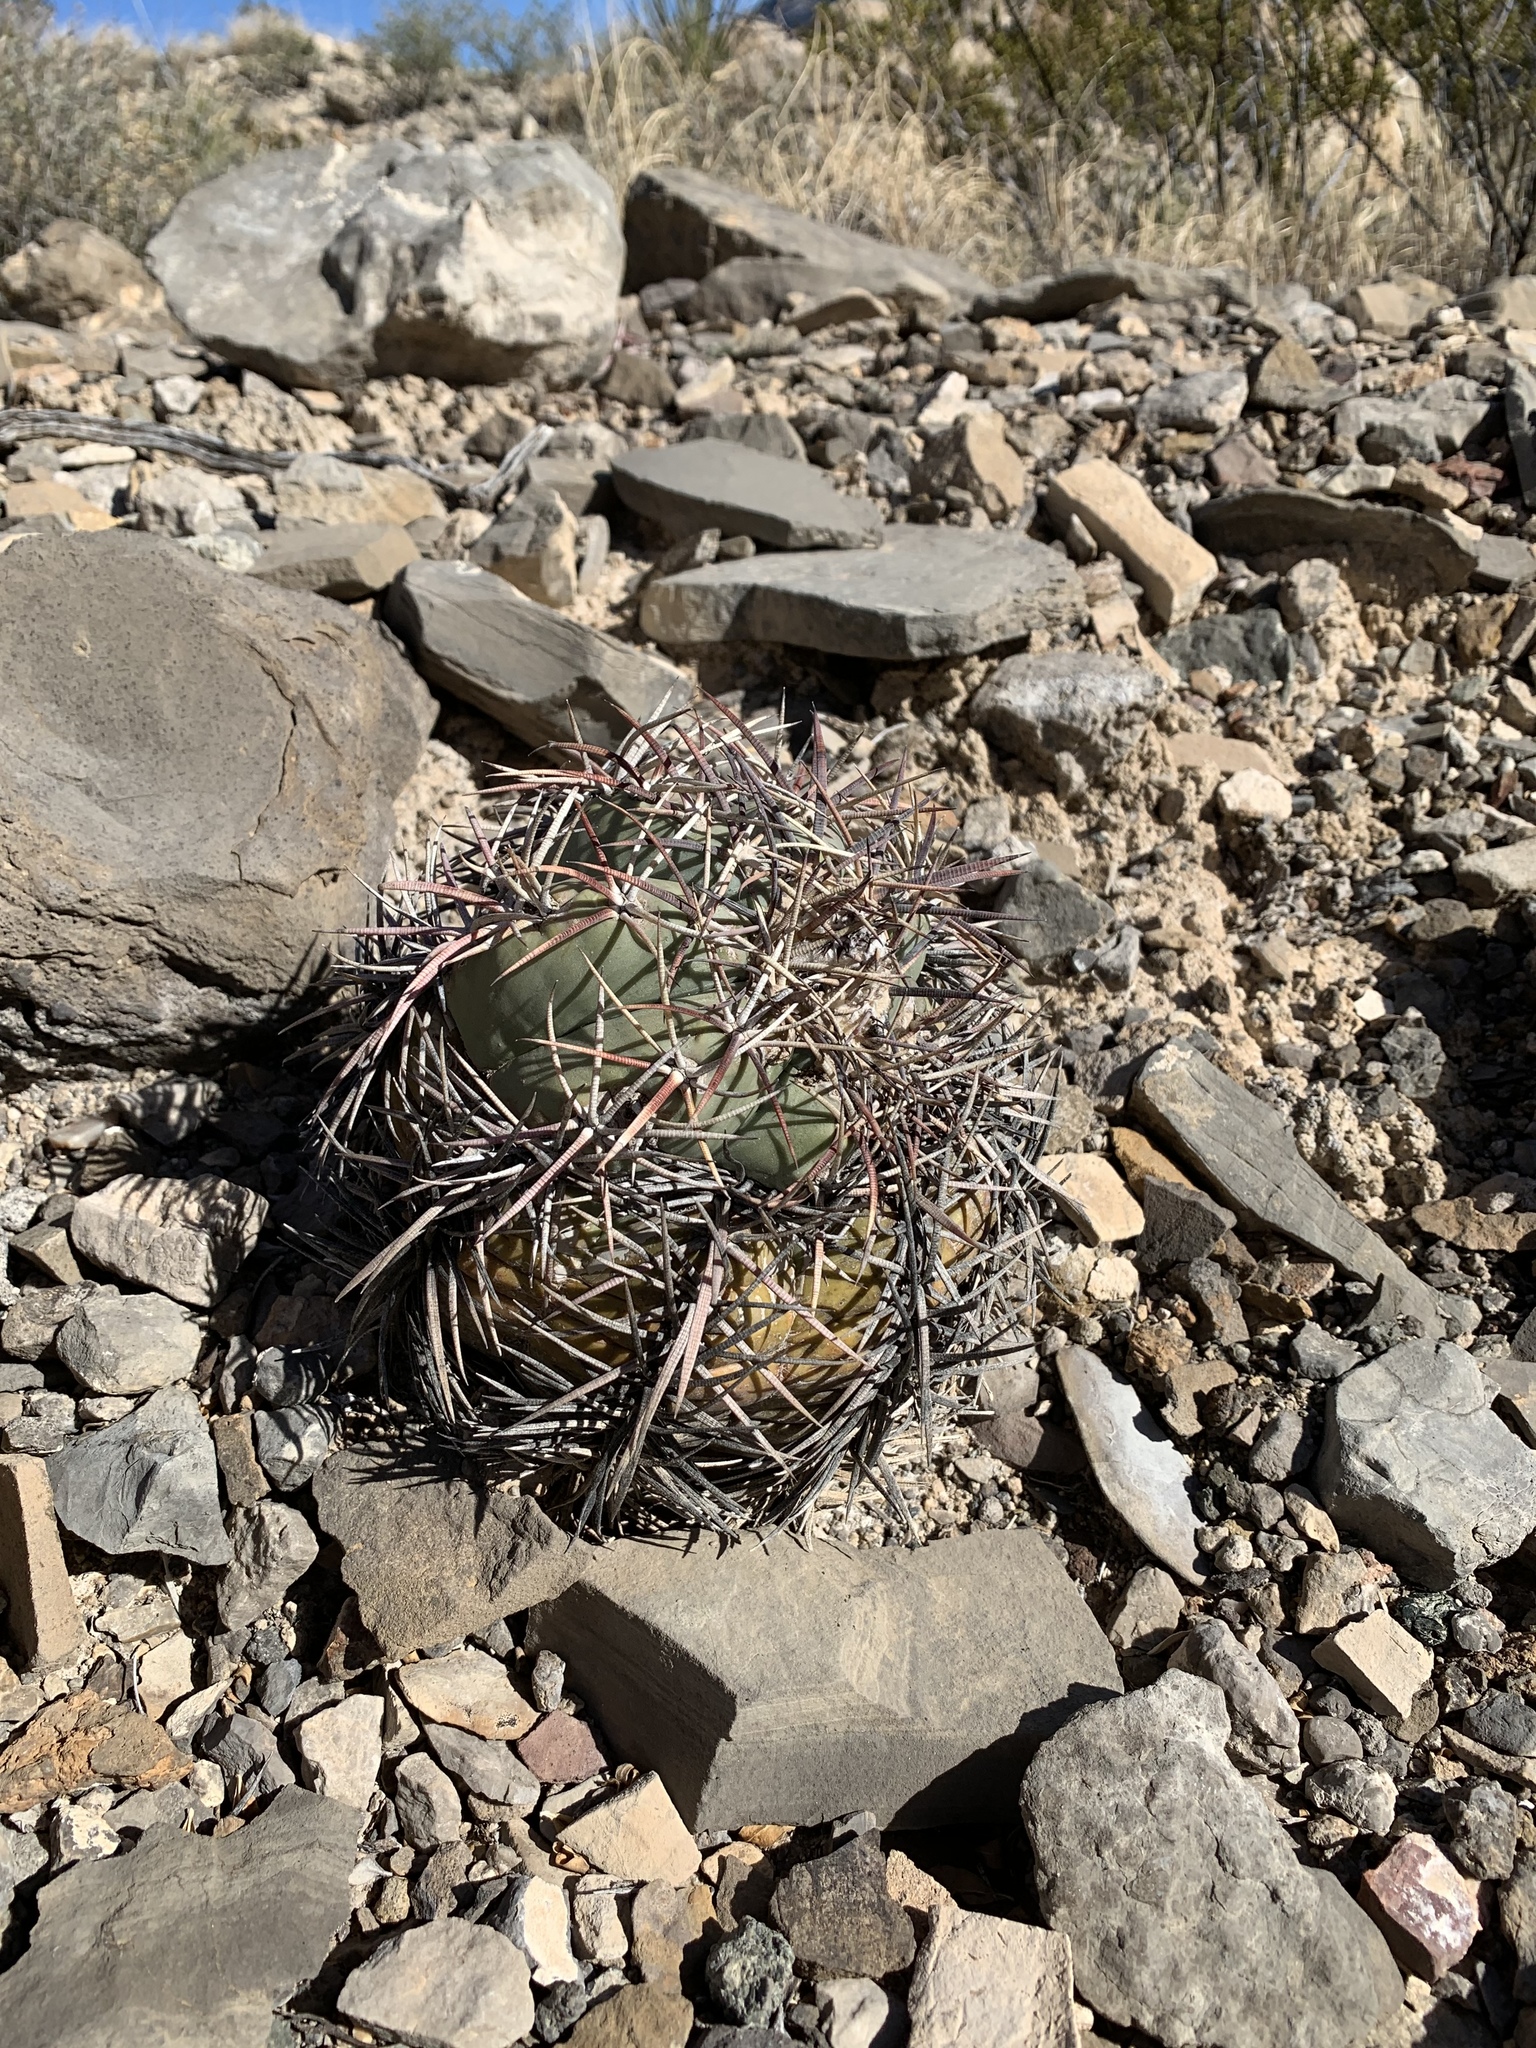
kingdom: Plantae
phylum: Tracheophyta
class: Magnoliopsida
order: Caryophyllales
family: Cactaceae
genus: Echinocactus
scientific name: Echinocactus horizonthalonius
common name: Devilshead
